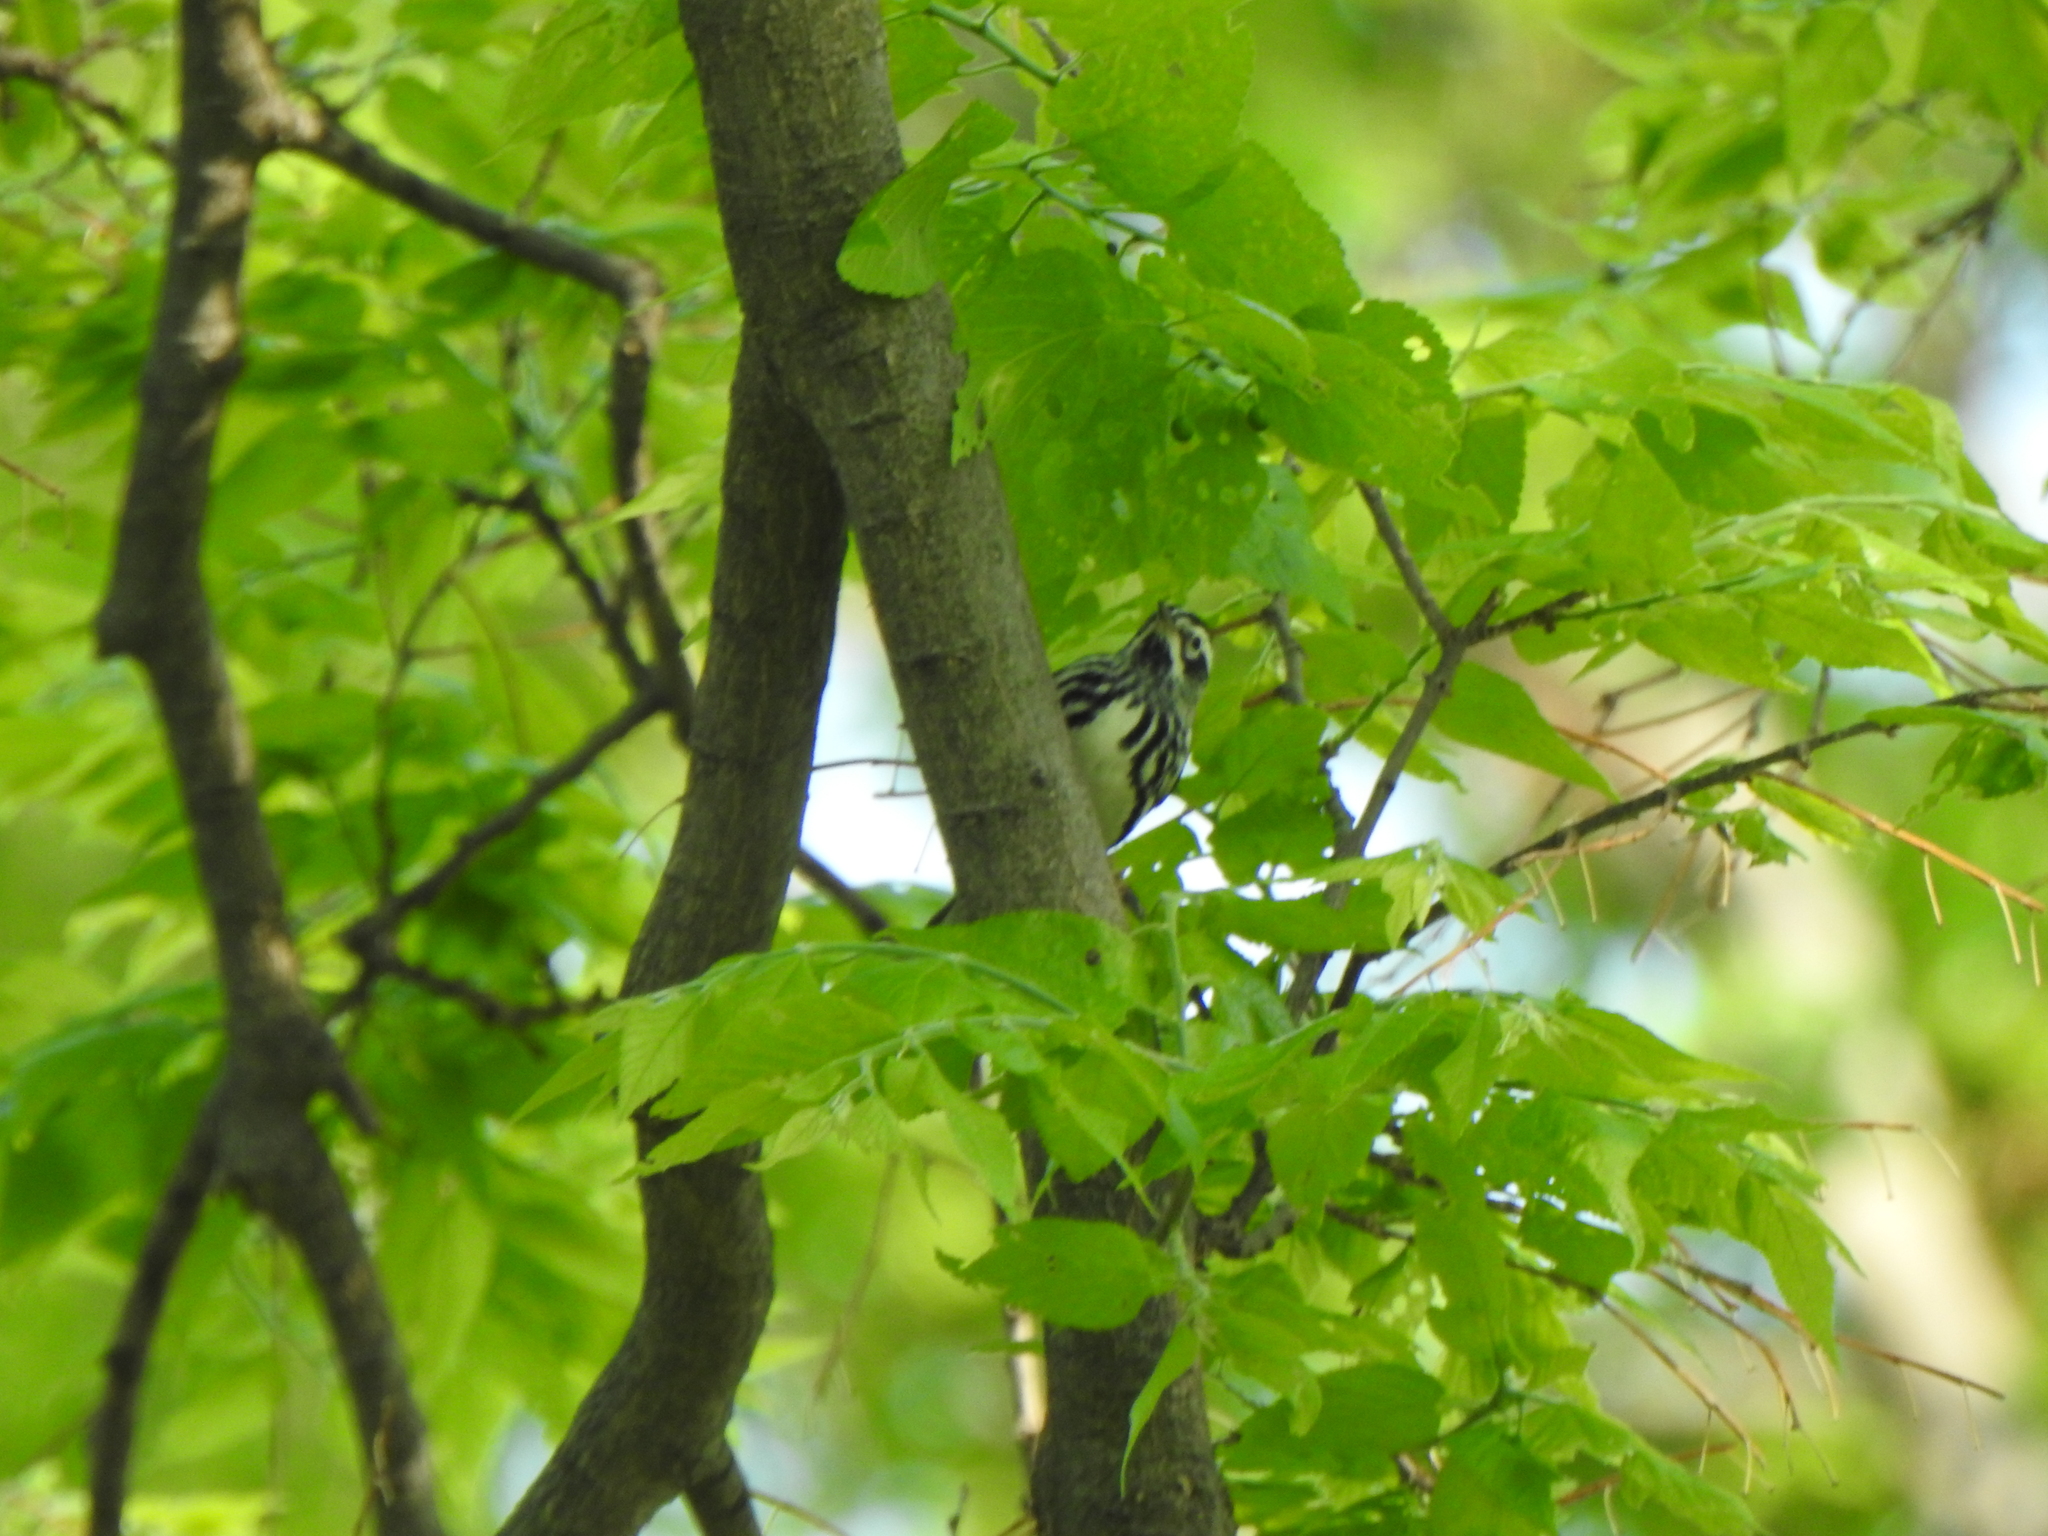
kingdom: Animalia
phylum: Chordata
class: Aves
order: Passeriformes
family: Parulidae
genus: Mniotilta
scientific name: Mniotilta varia
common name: Black-and-white warbler
